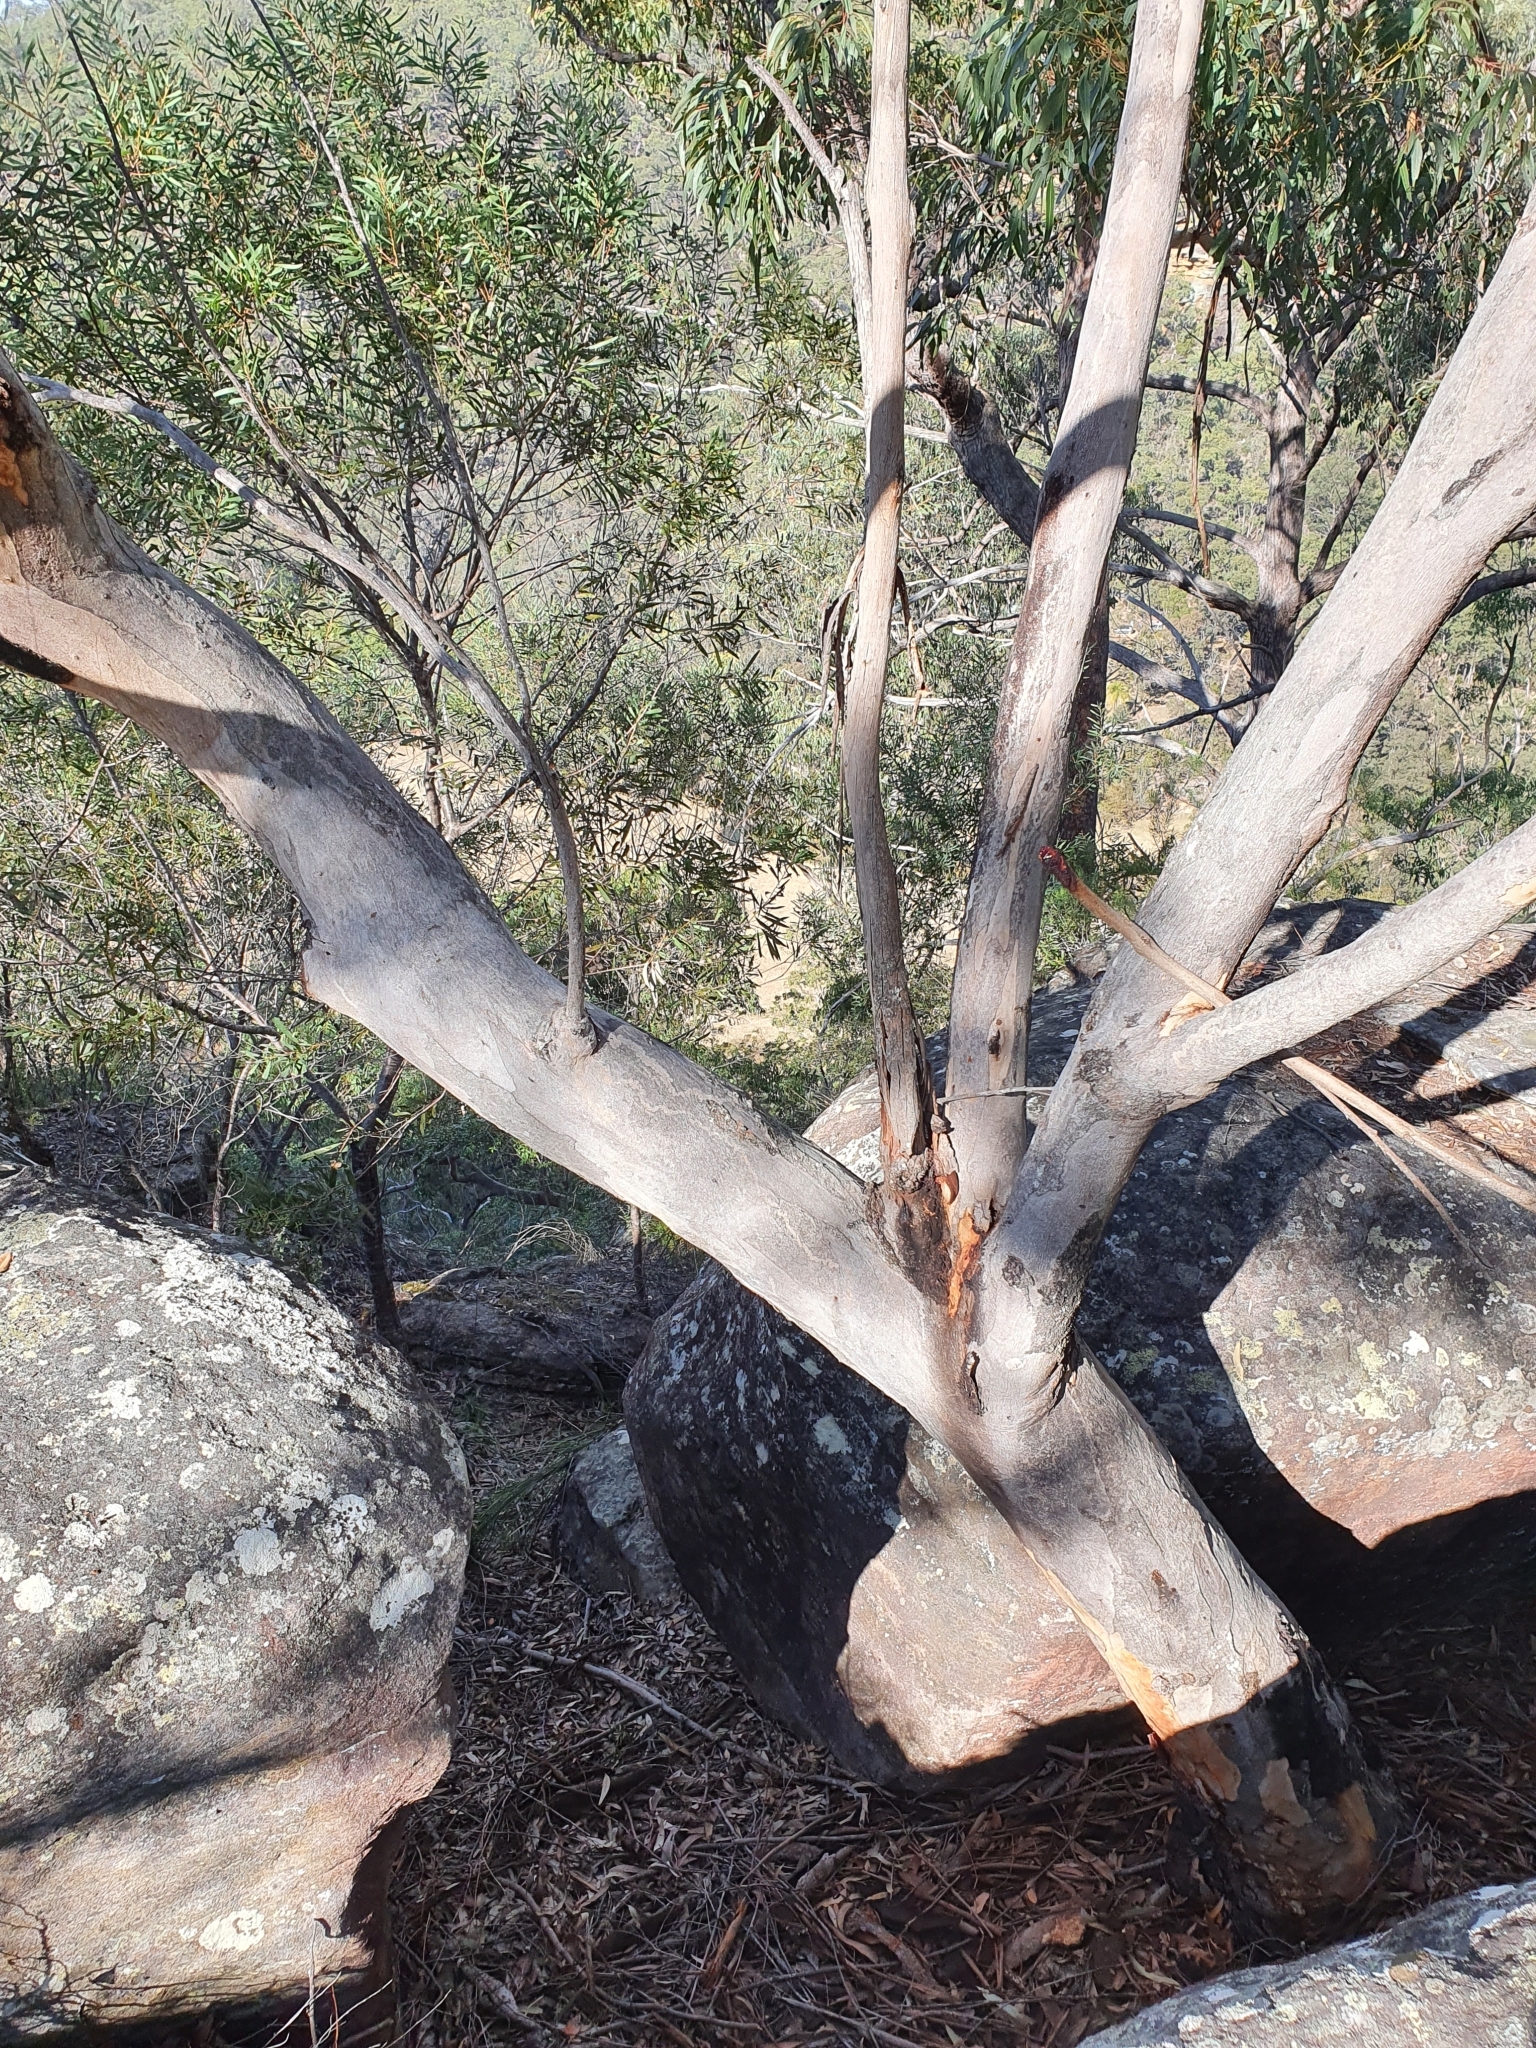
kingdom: Plantae
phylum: Tracheophyta
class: Magnoliopsida
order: Myrtales
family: Myrtaceae
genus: Eucalyptus
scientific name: Eucalyptus punctata
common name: Gray gum
